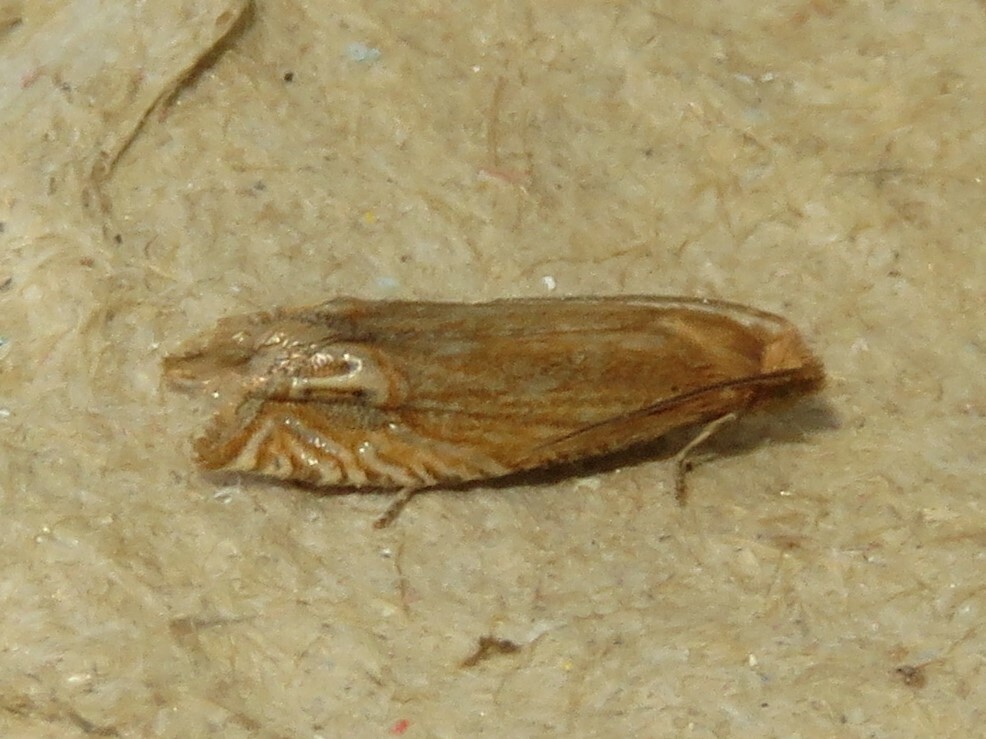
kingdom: Animalia
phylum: Arthropoda
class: Insecta
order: Lepidoptera
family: Tortricidae
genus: Pelochrista
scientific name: Pelochrista cataclystiana
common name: Goldenrod pelochrista moth
